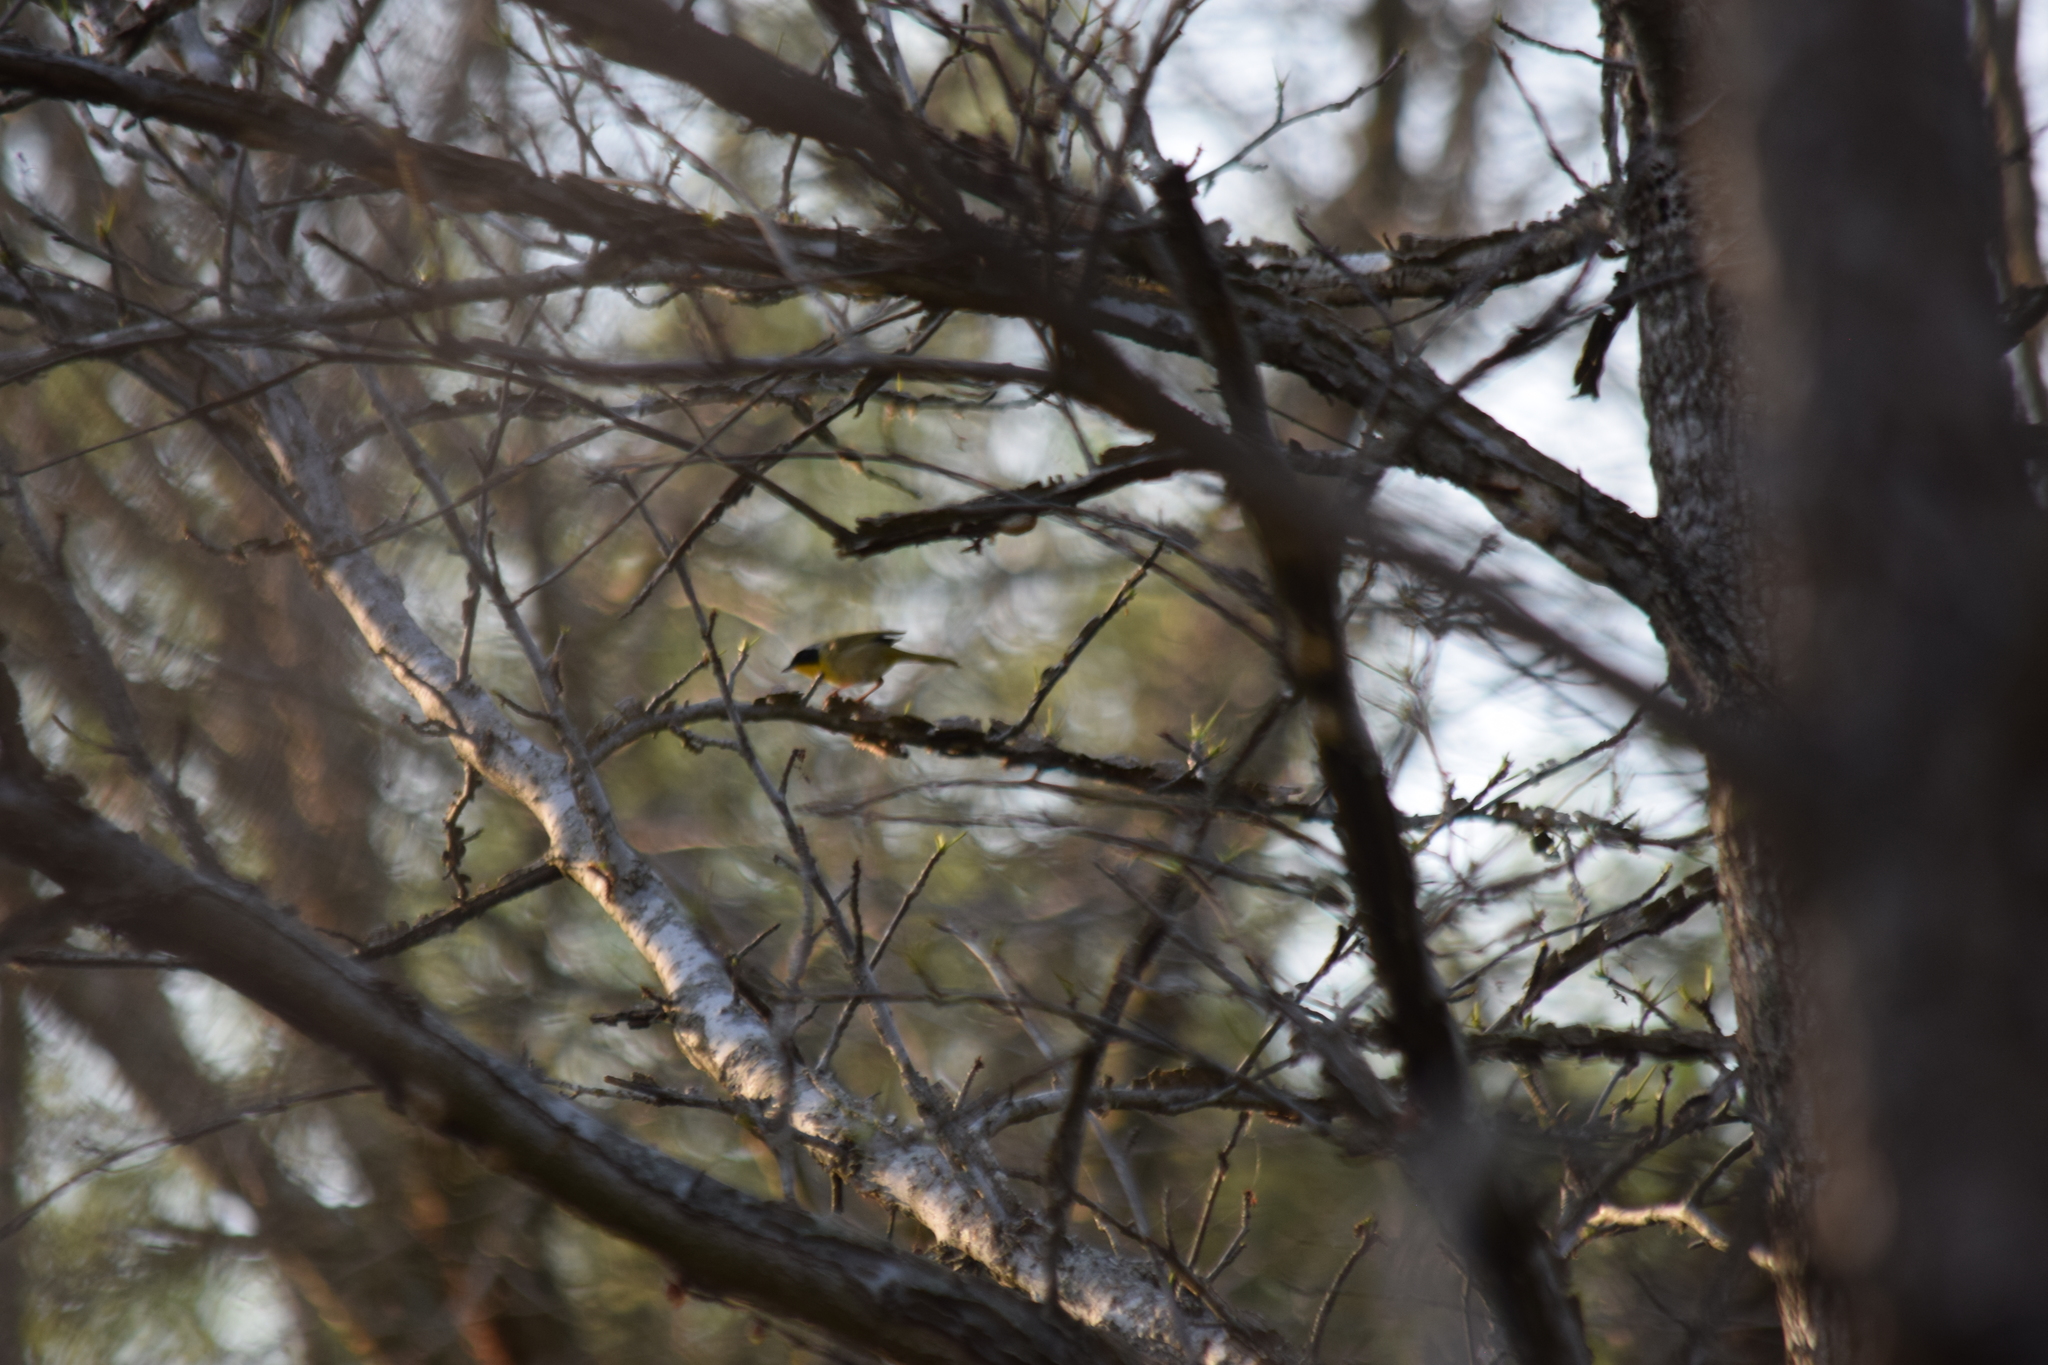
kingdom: Animalia
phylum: Chordata
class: Aves
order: Passeriformes
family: Parulidae
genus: Geothlypis
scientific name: Geothlypis trichas
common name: Common yellowthroat
